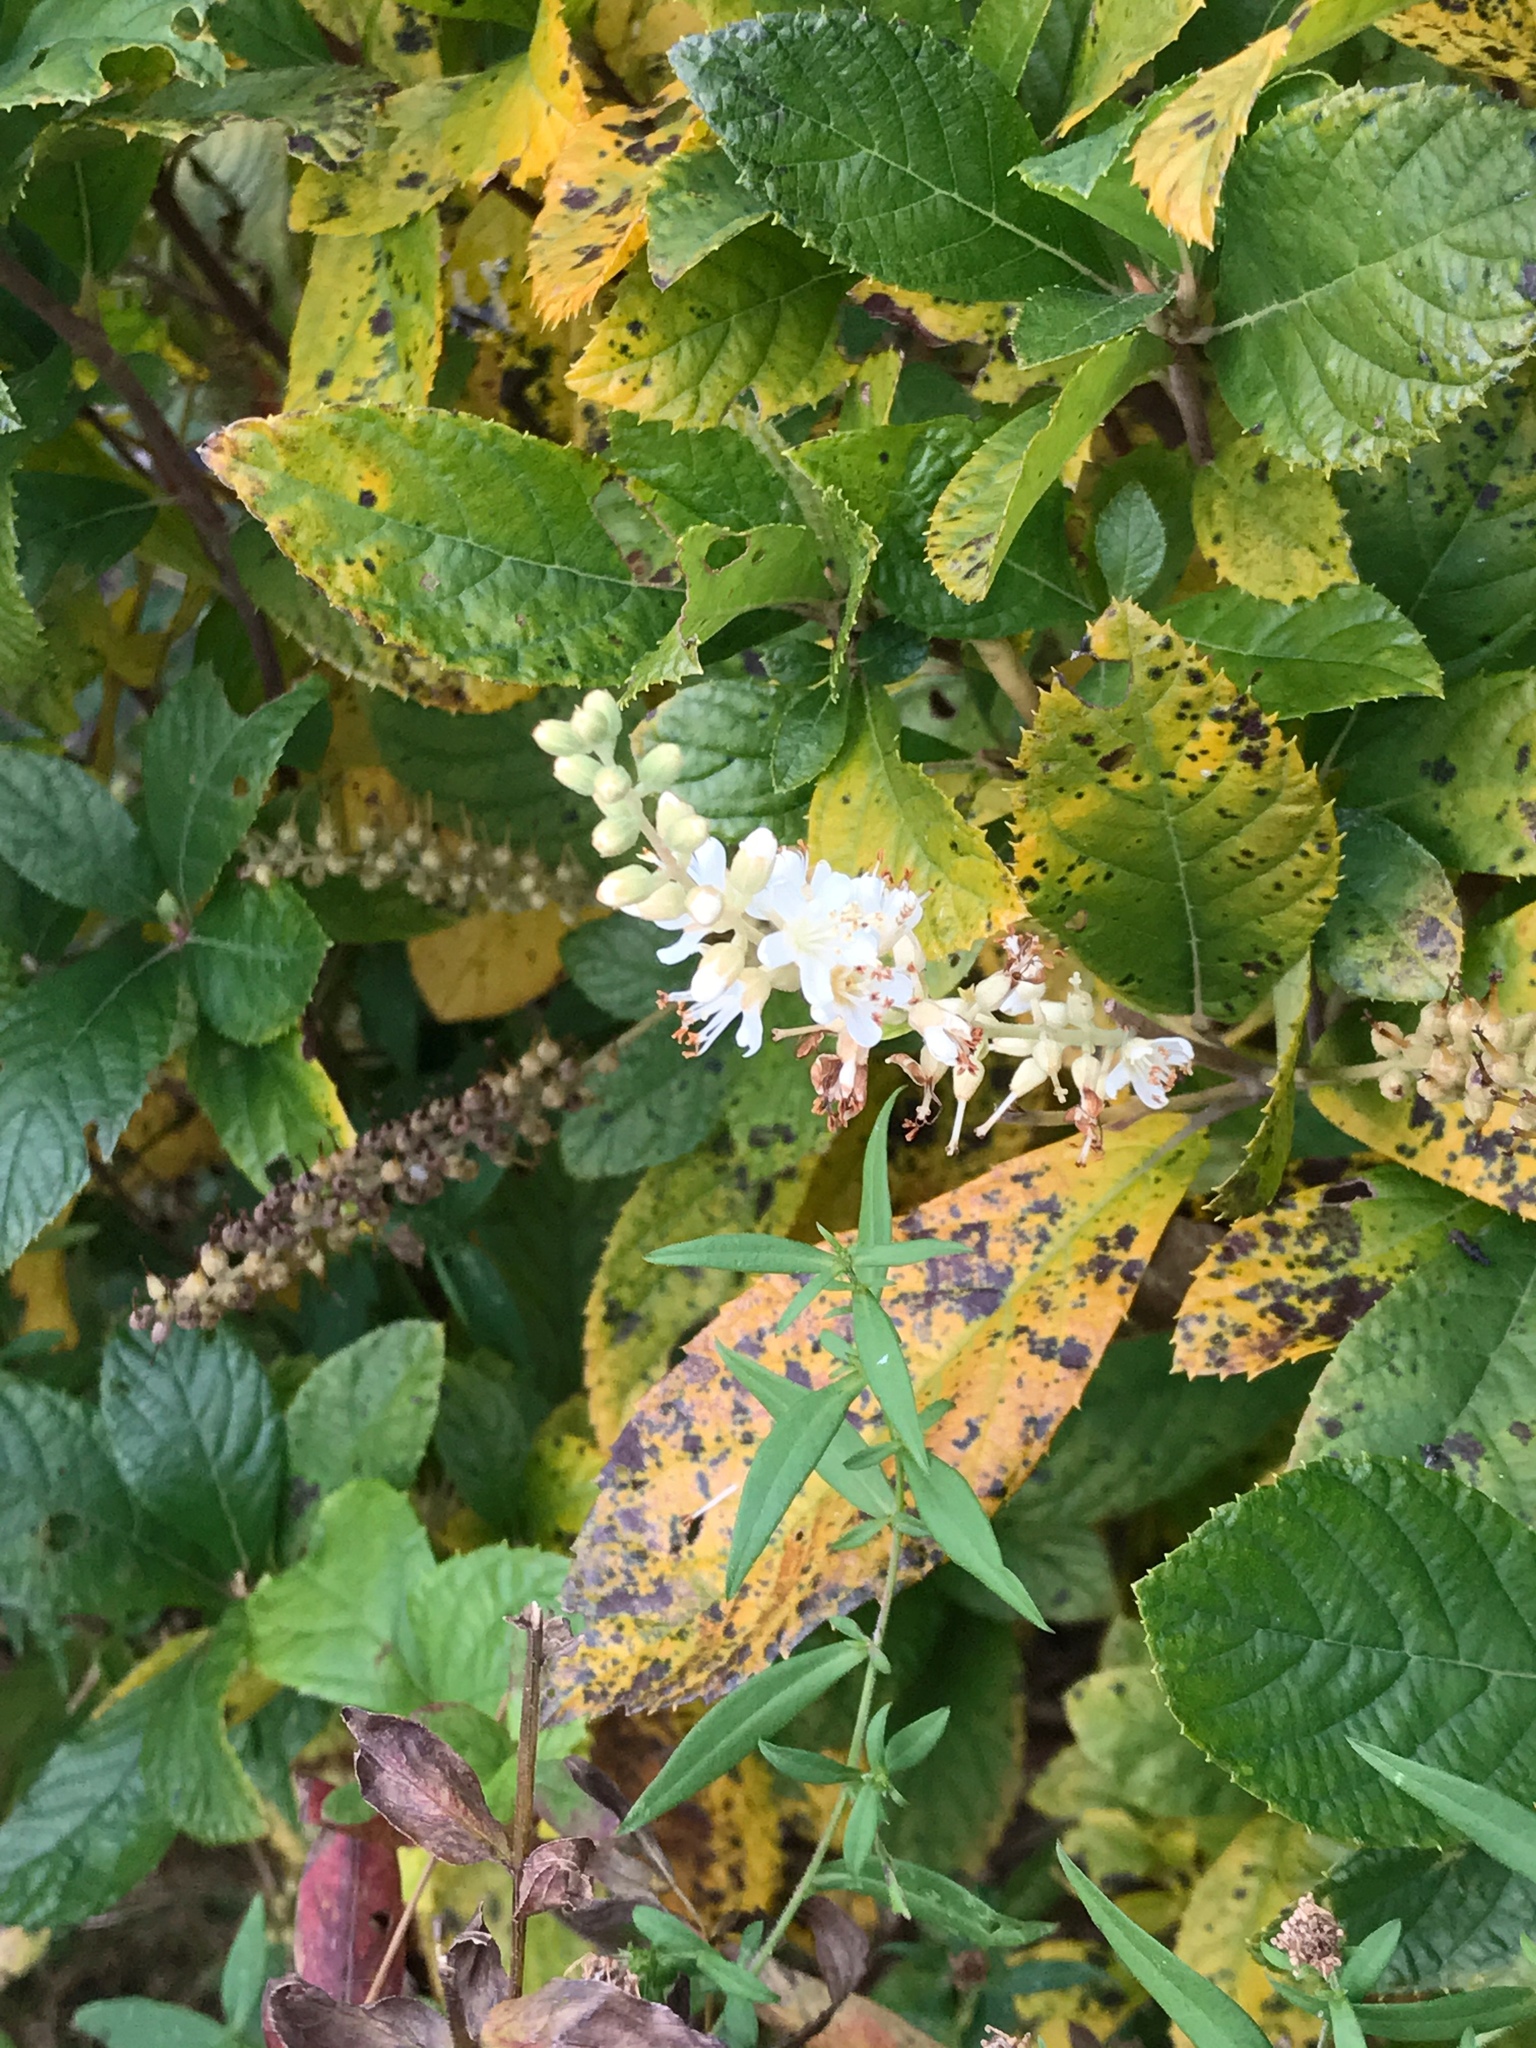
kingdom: Plantae
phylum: Tracheophyta
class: Magnoliopsida
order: Ericales
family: Clethraceae
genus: Clethra
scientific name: Clethra alnifolia
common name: Sweet pepperbush
